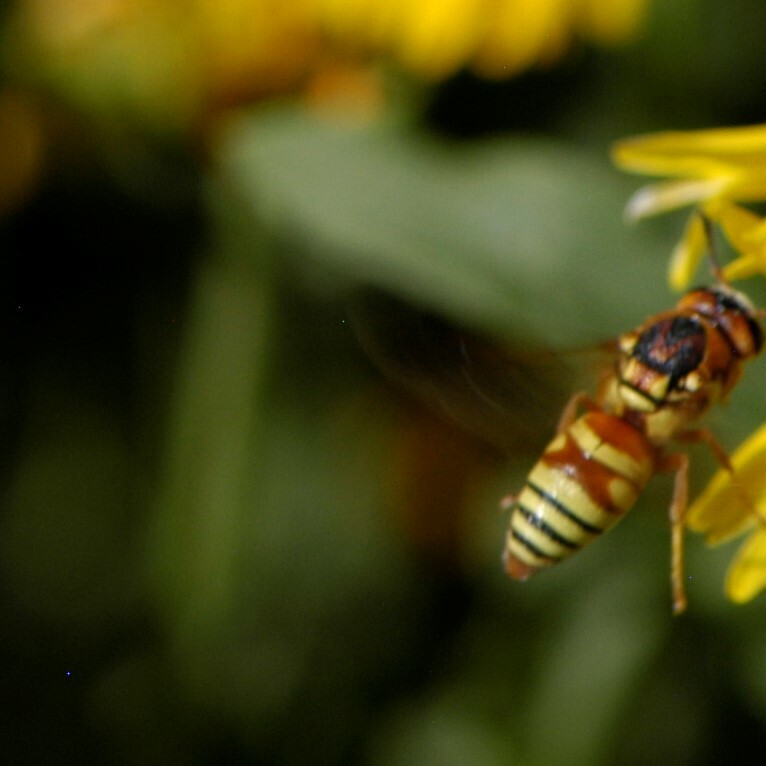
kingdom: Animalia
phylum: Arthropoda
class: Insecta
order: Hymenoptera
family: Eumenidae
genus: Euodynerus
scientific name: Euodynerus annulatus
